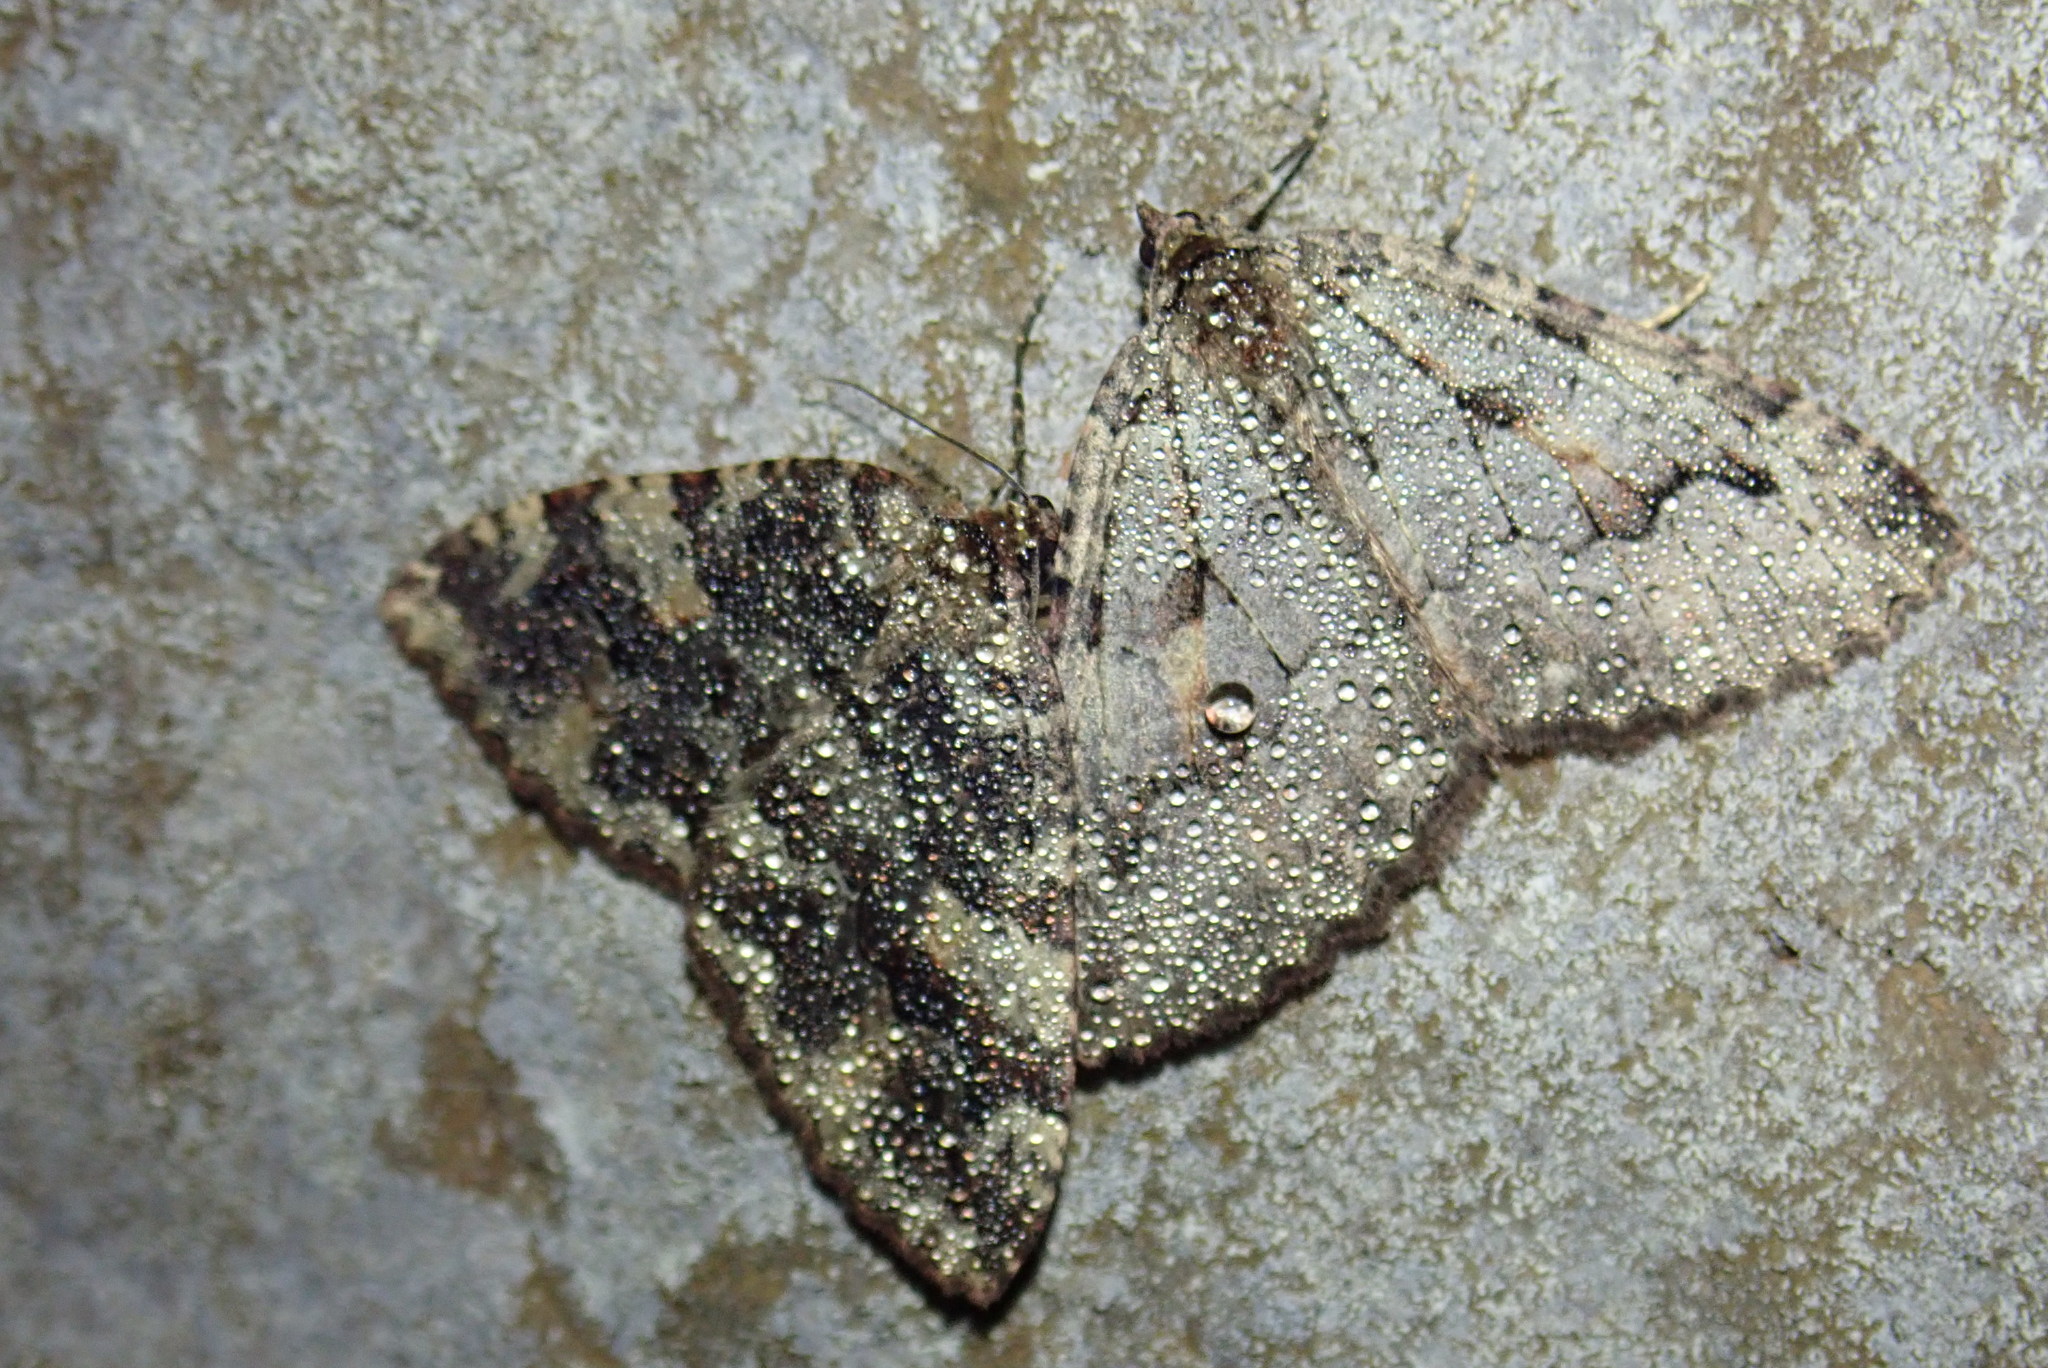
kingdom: Animalia
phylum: Arthropoda
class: Insecta
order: Lepidoptera
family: Geometridae
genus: Triphosa
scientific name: Triphosa haesitata
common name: Tissue moth
